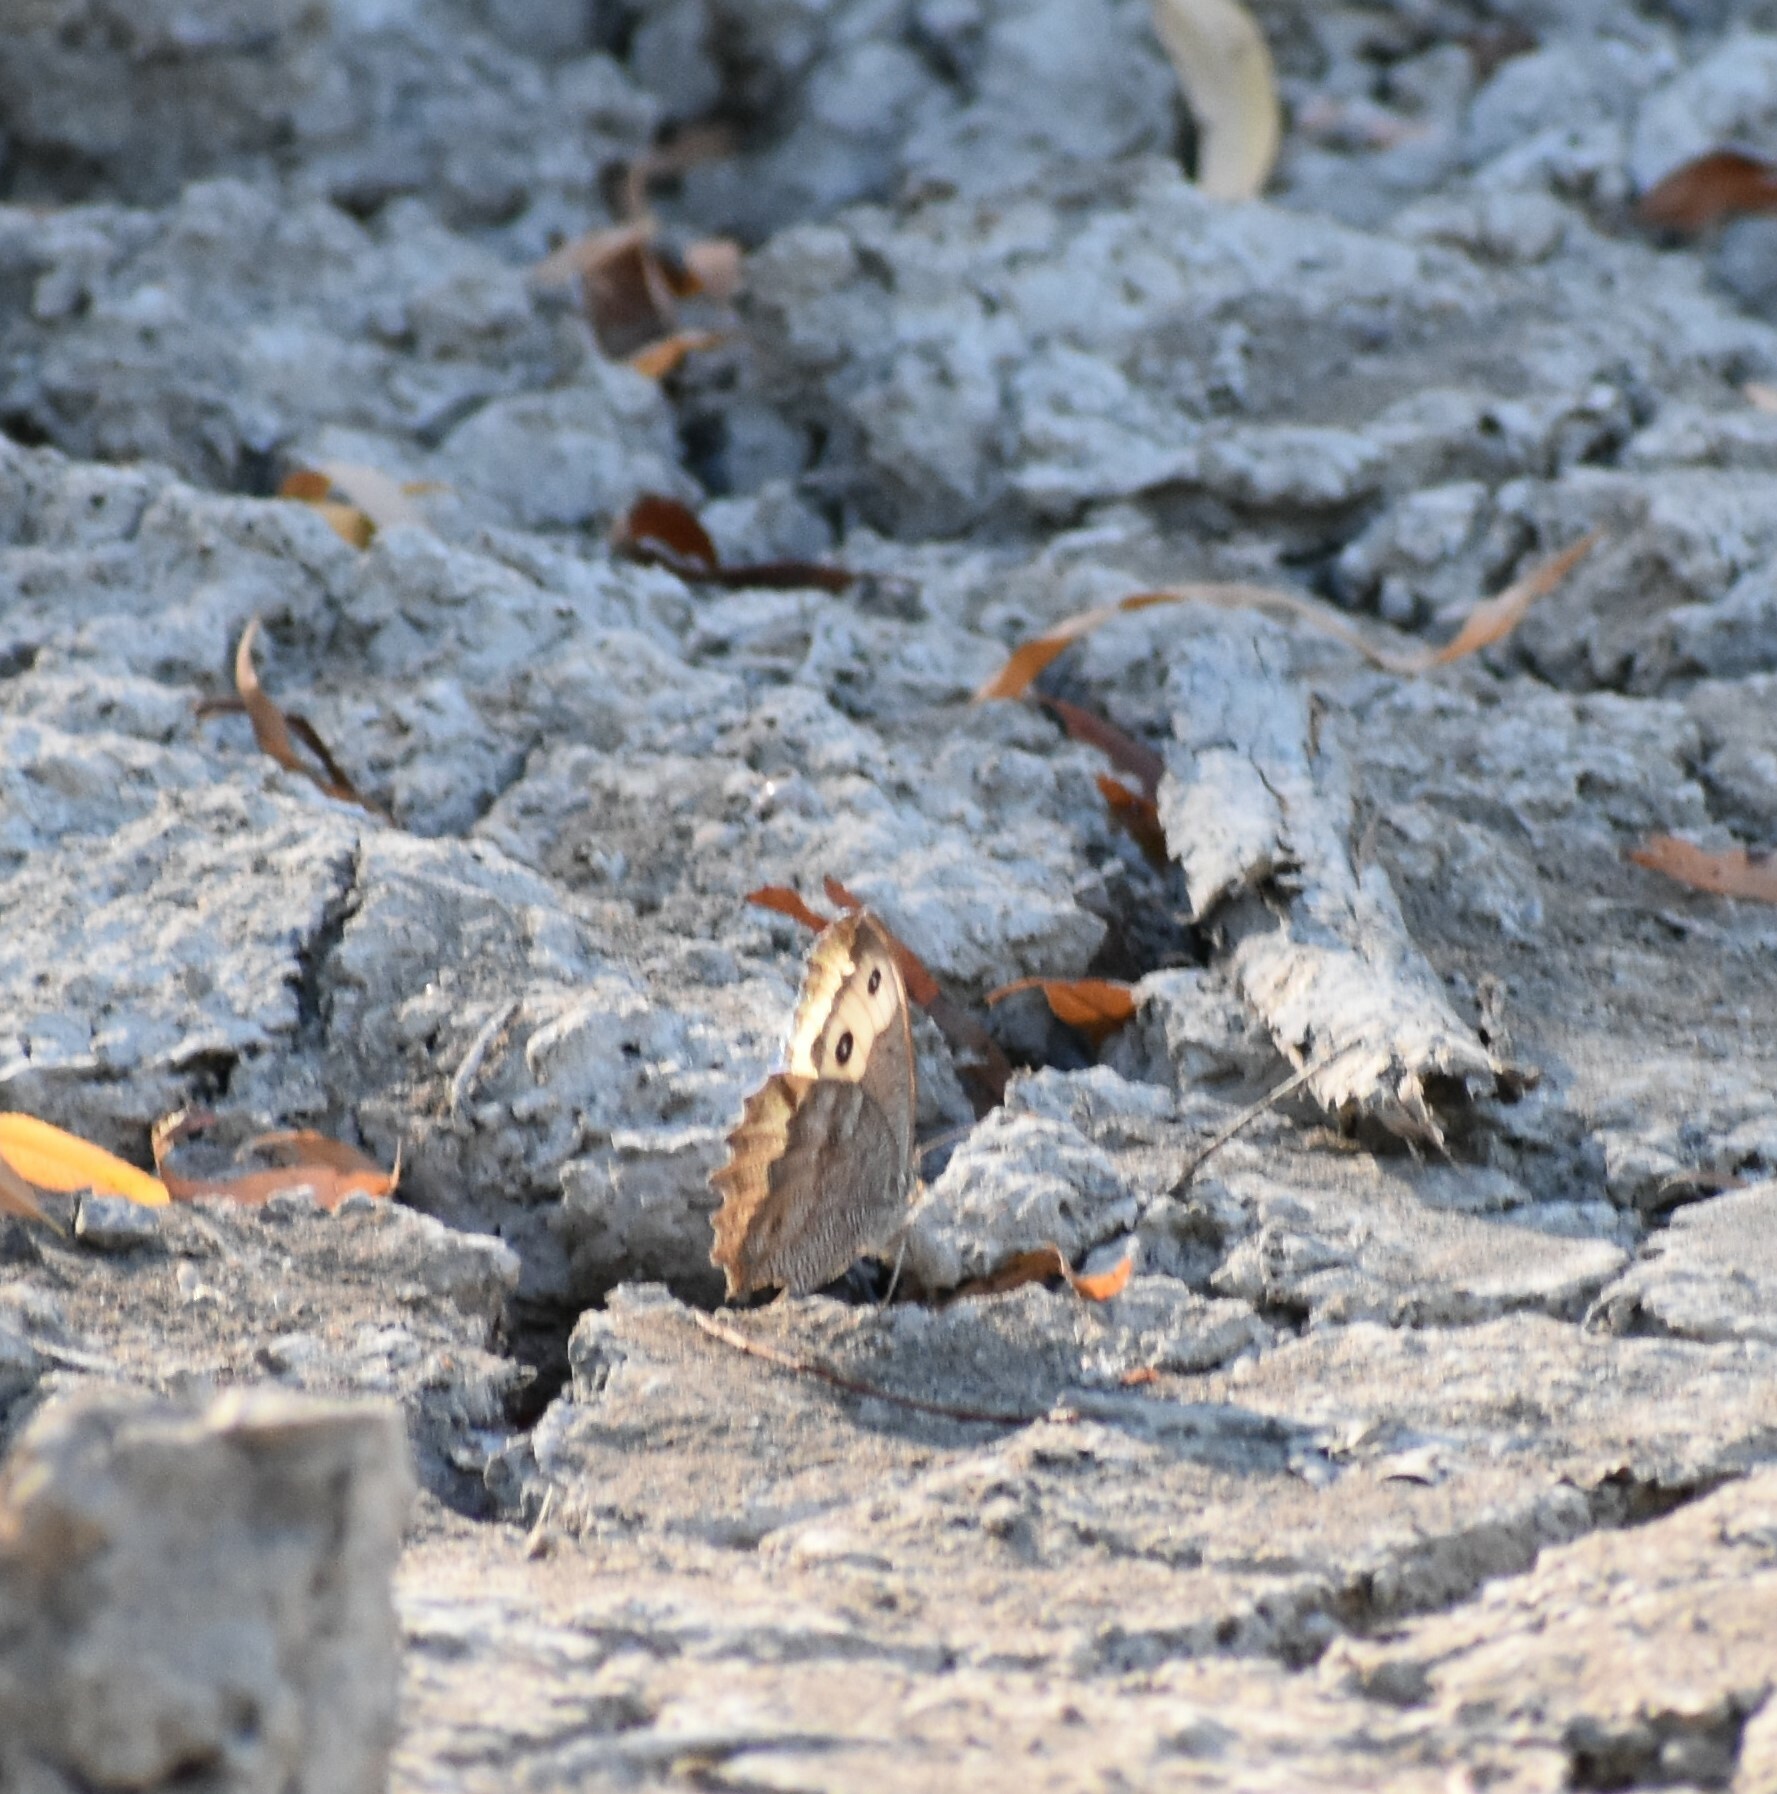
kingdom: Animalia
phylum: Arthropoda
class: Insecta
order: Lepidoptera
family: Nymphalidae
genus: Cercyonis
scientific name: Cercyonis pegala
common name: Common wood-nymph
